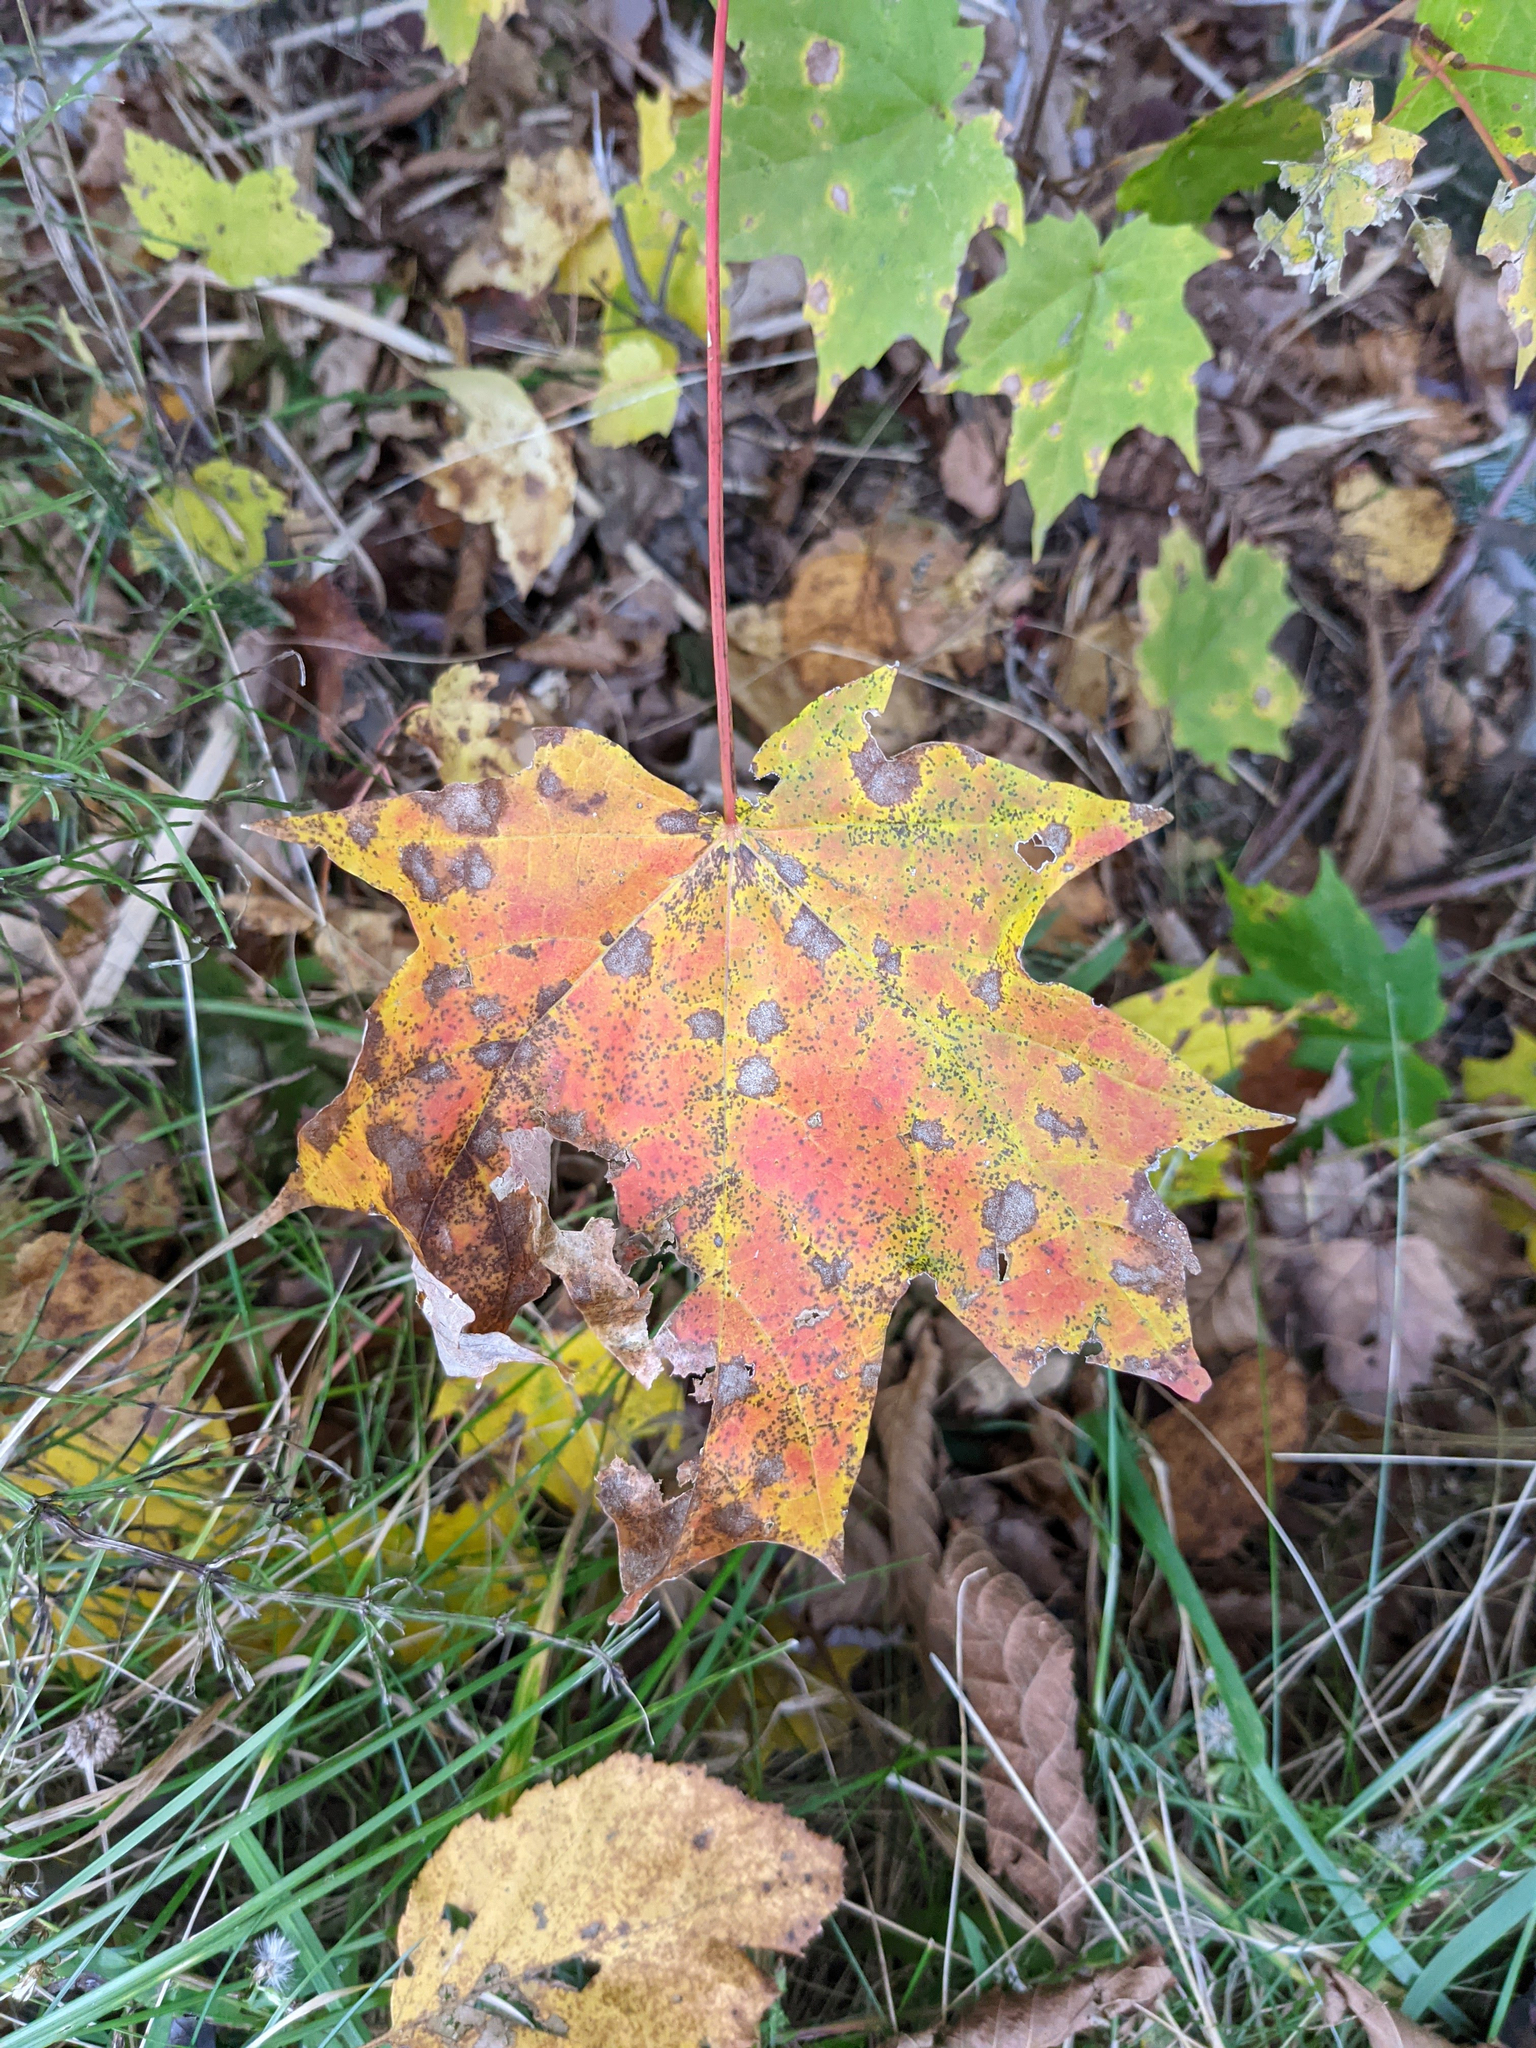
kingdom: Plantae
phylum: Tracheophyta
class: Magnoliopsida
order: Sapindales
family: Sapindaceae
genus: Acer
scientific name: Acer saccharum
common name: Sugar maple
